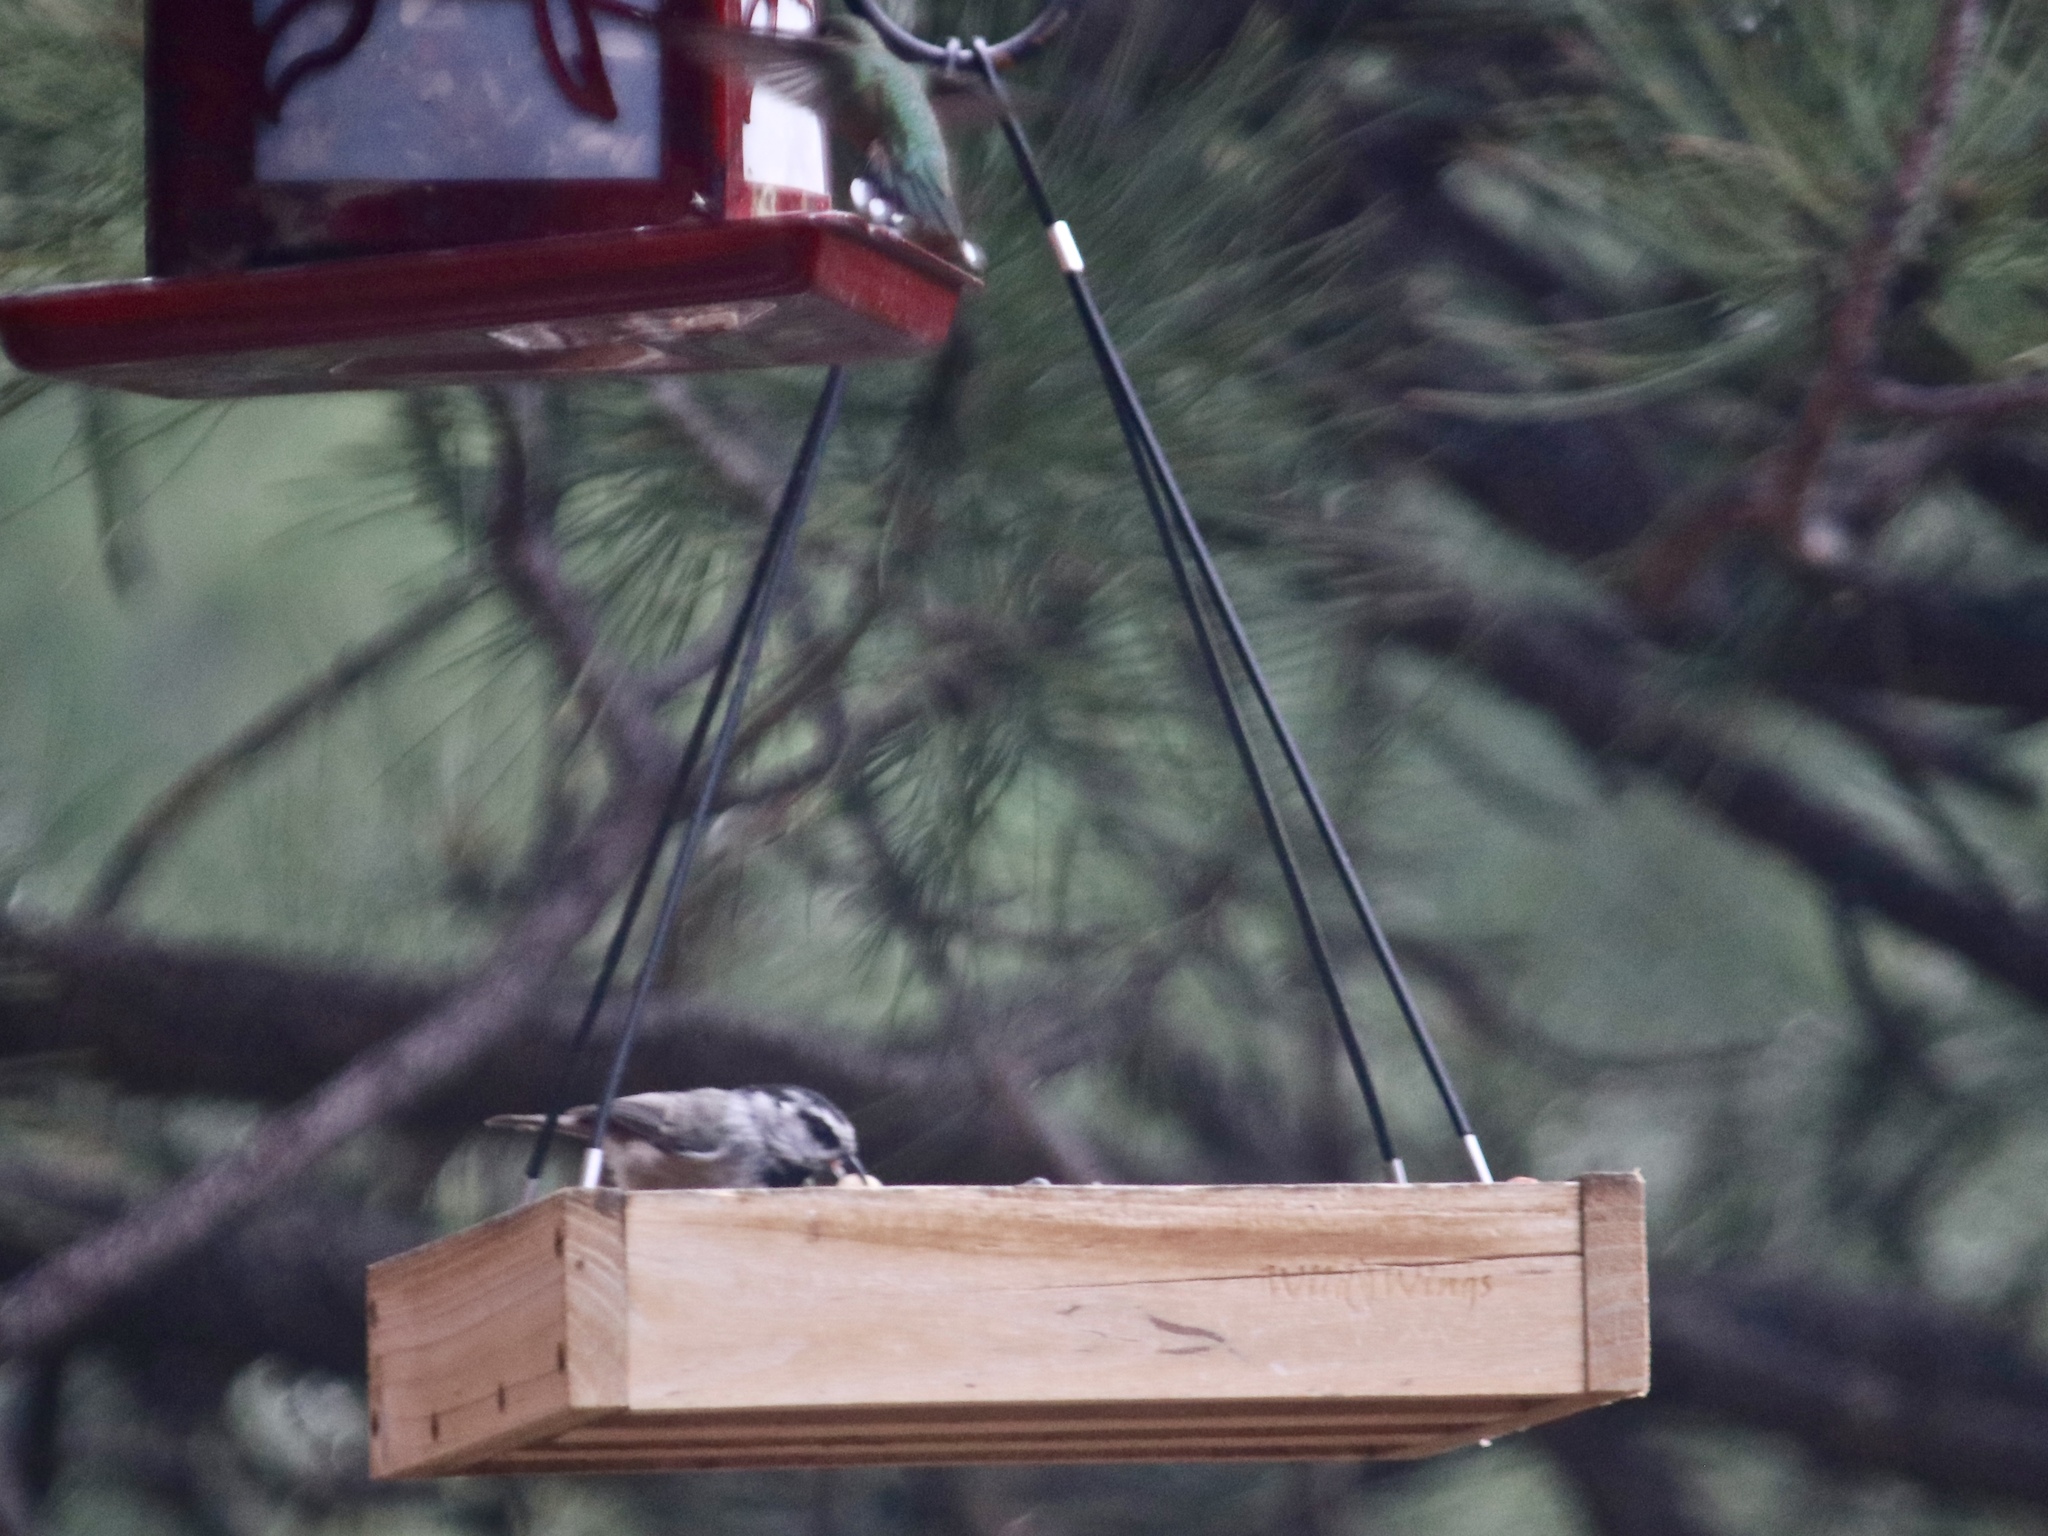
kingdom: Animalia
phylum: Chordata
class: Aves
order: Passeriformes
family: Paridae
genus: Poecile
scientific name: Poecile gambeli
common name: Mountain chickadee
